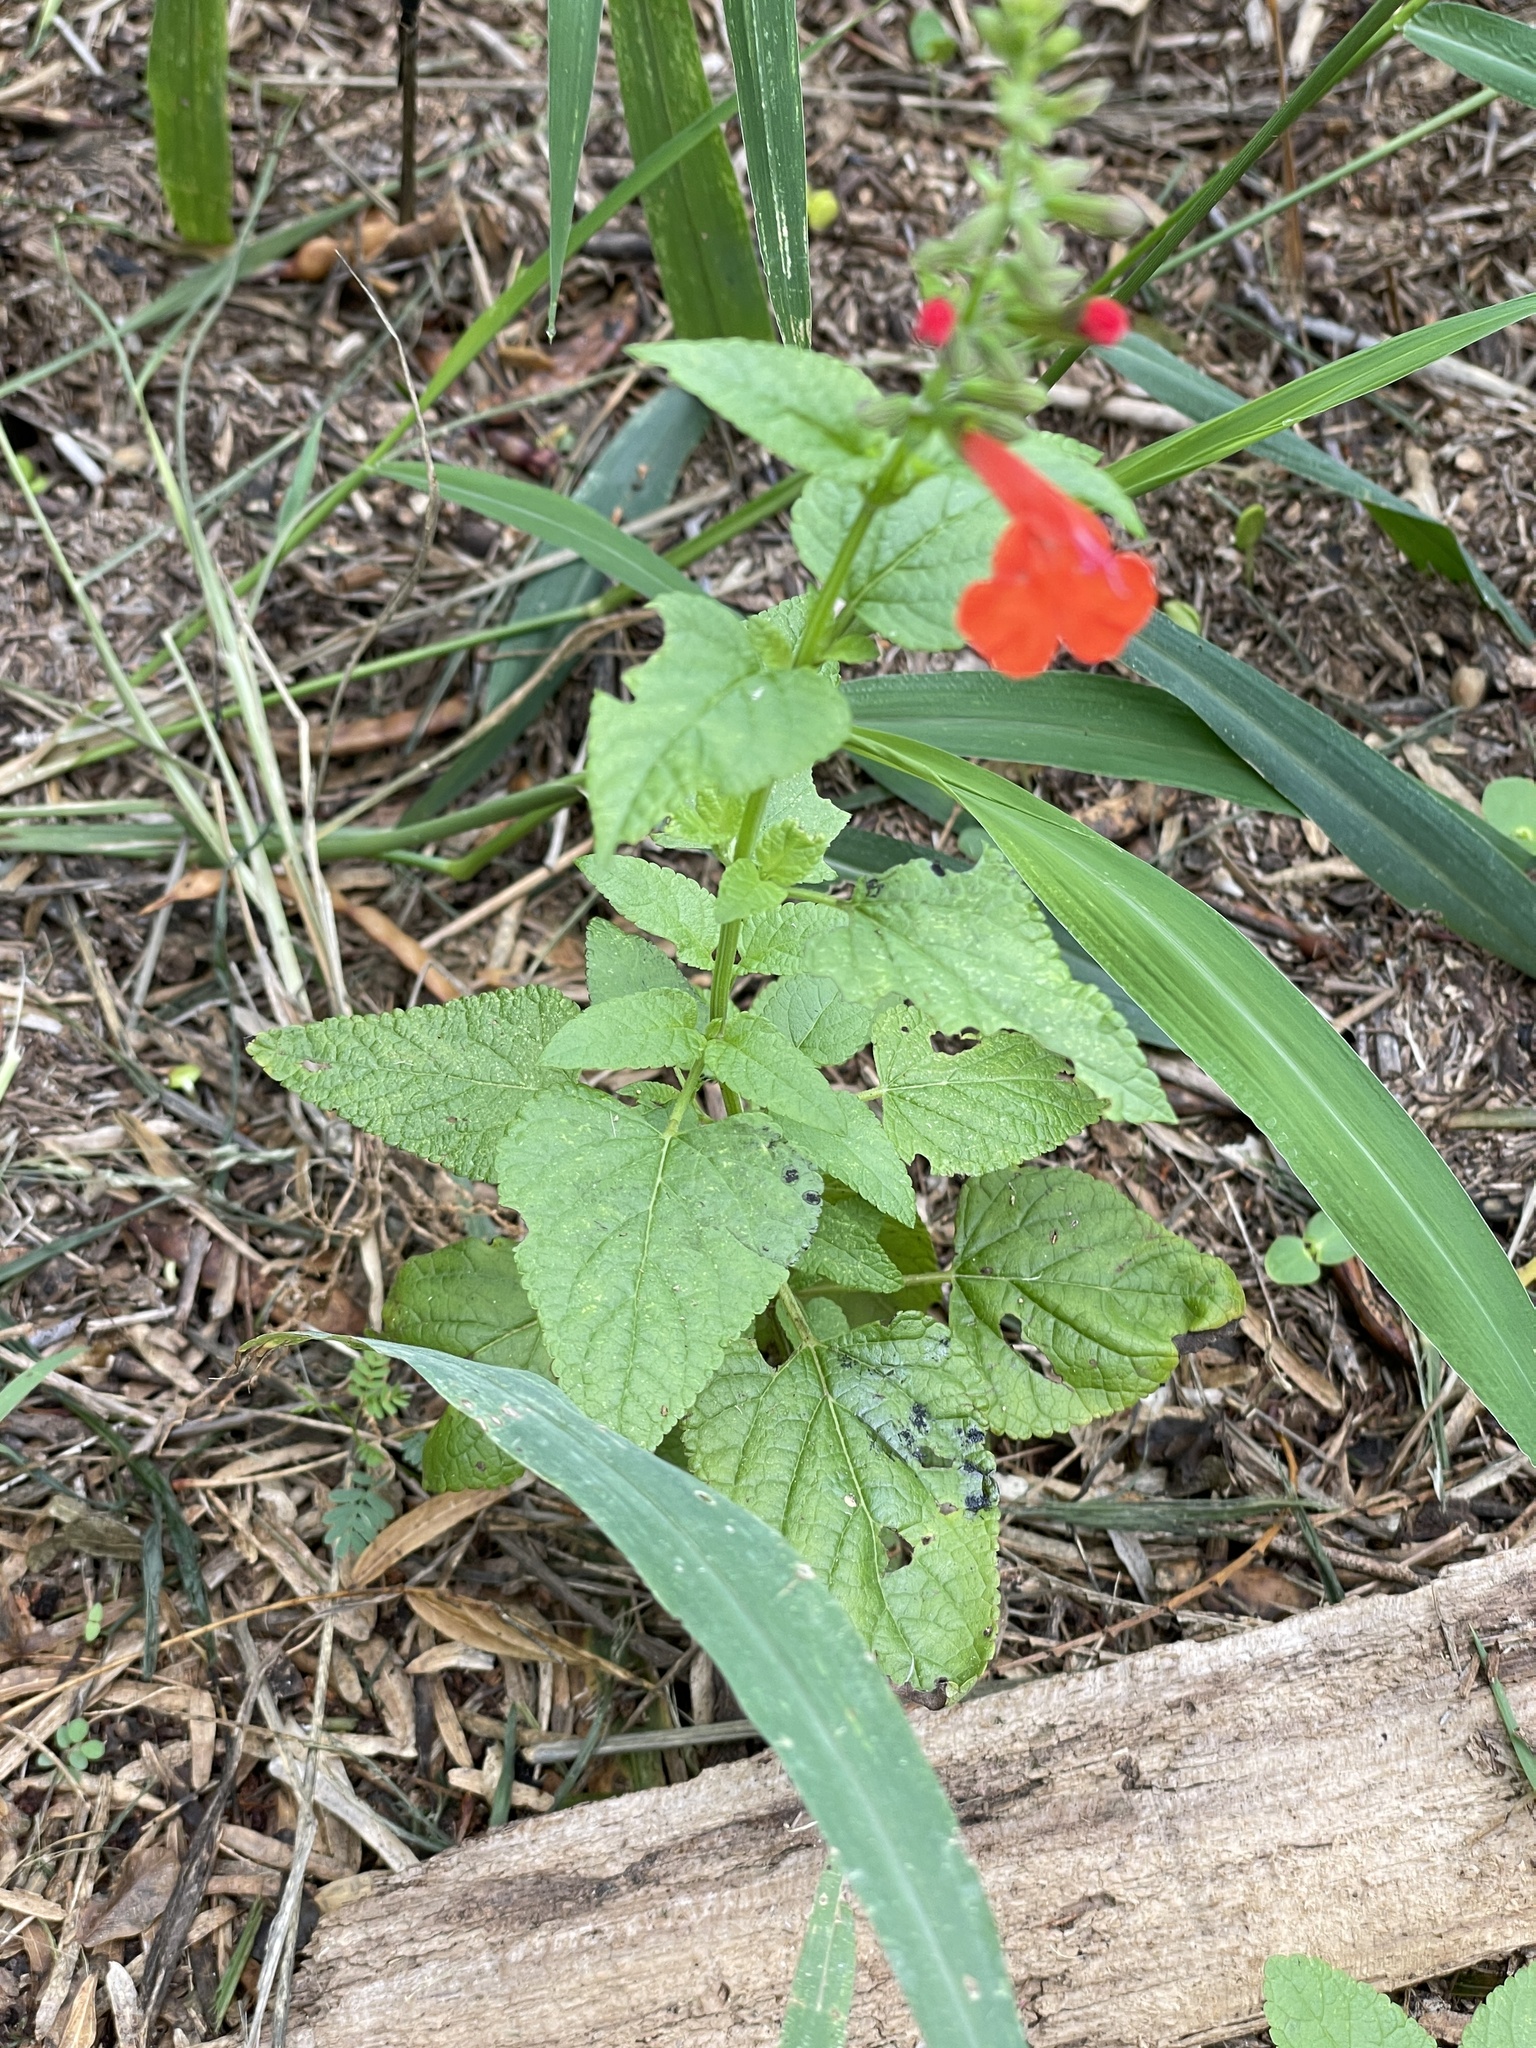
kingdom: Plantae
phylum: Tracheophyta
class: Magnoliopsida
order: Lamiales
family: Lamiaceae
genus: Salvia
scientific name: Salvia coccinea
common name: Blood sage
